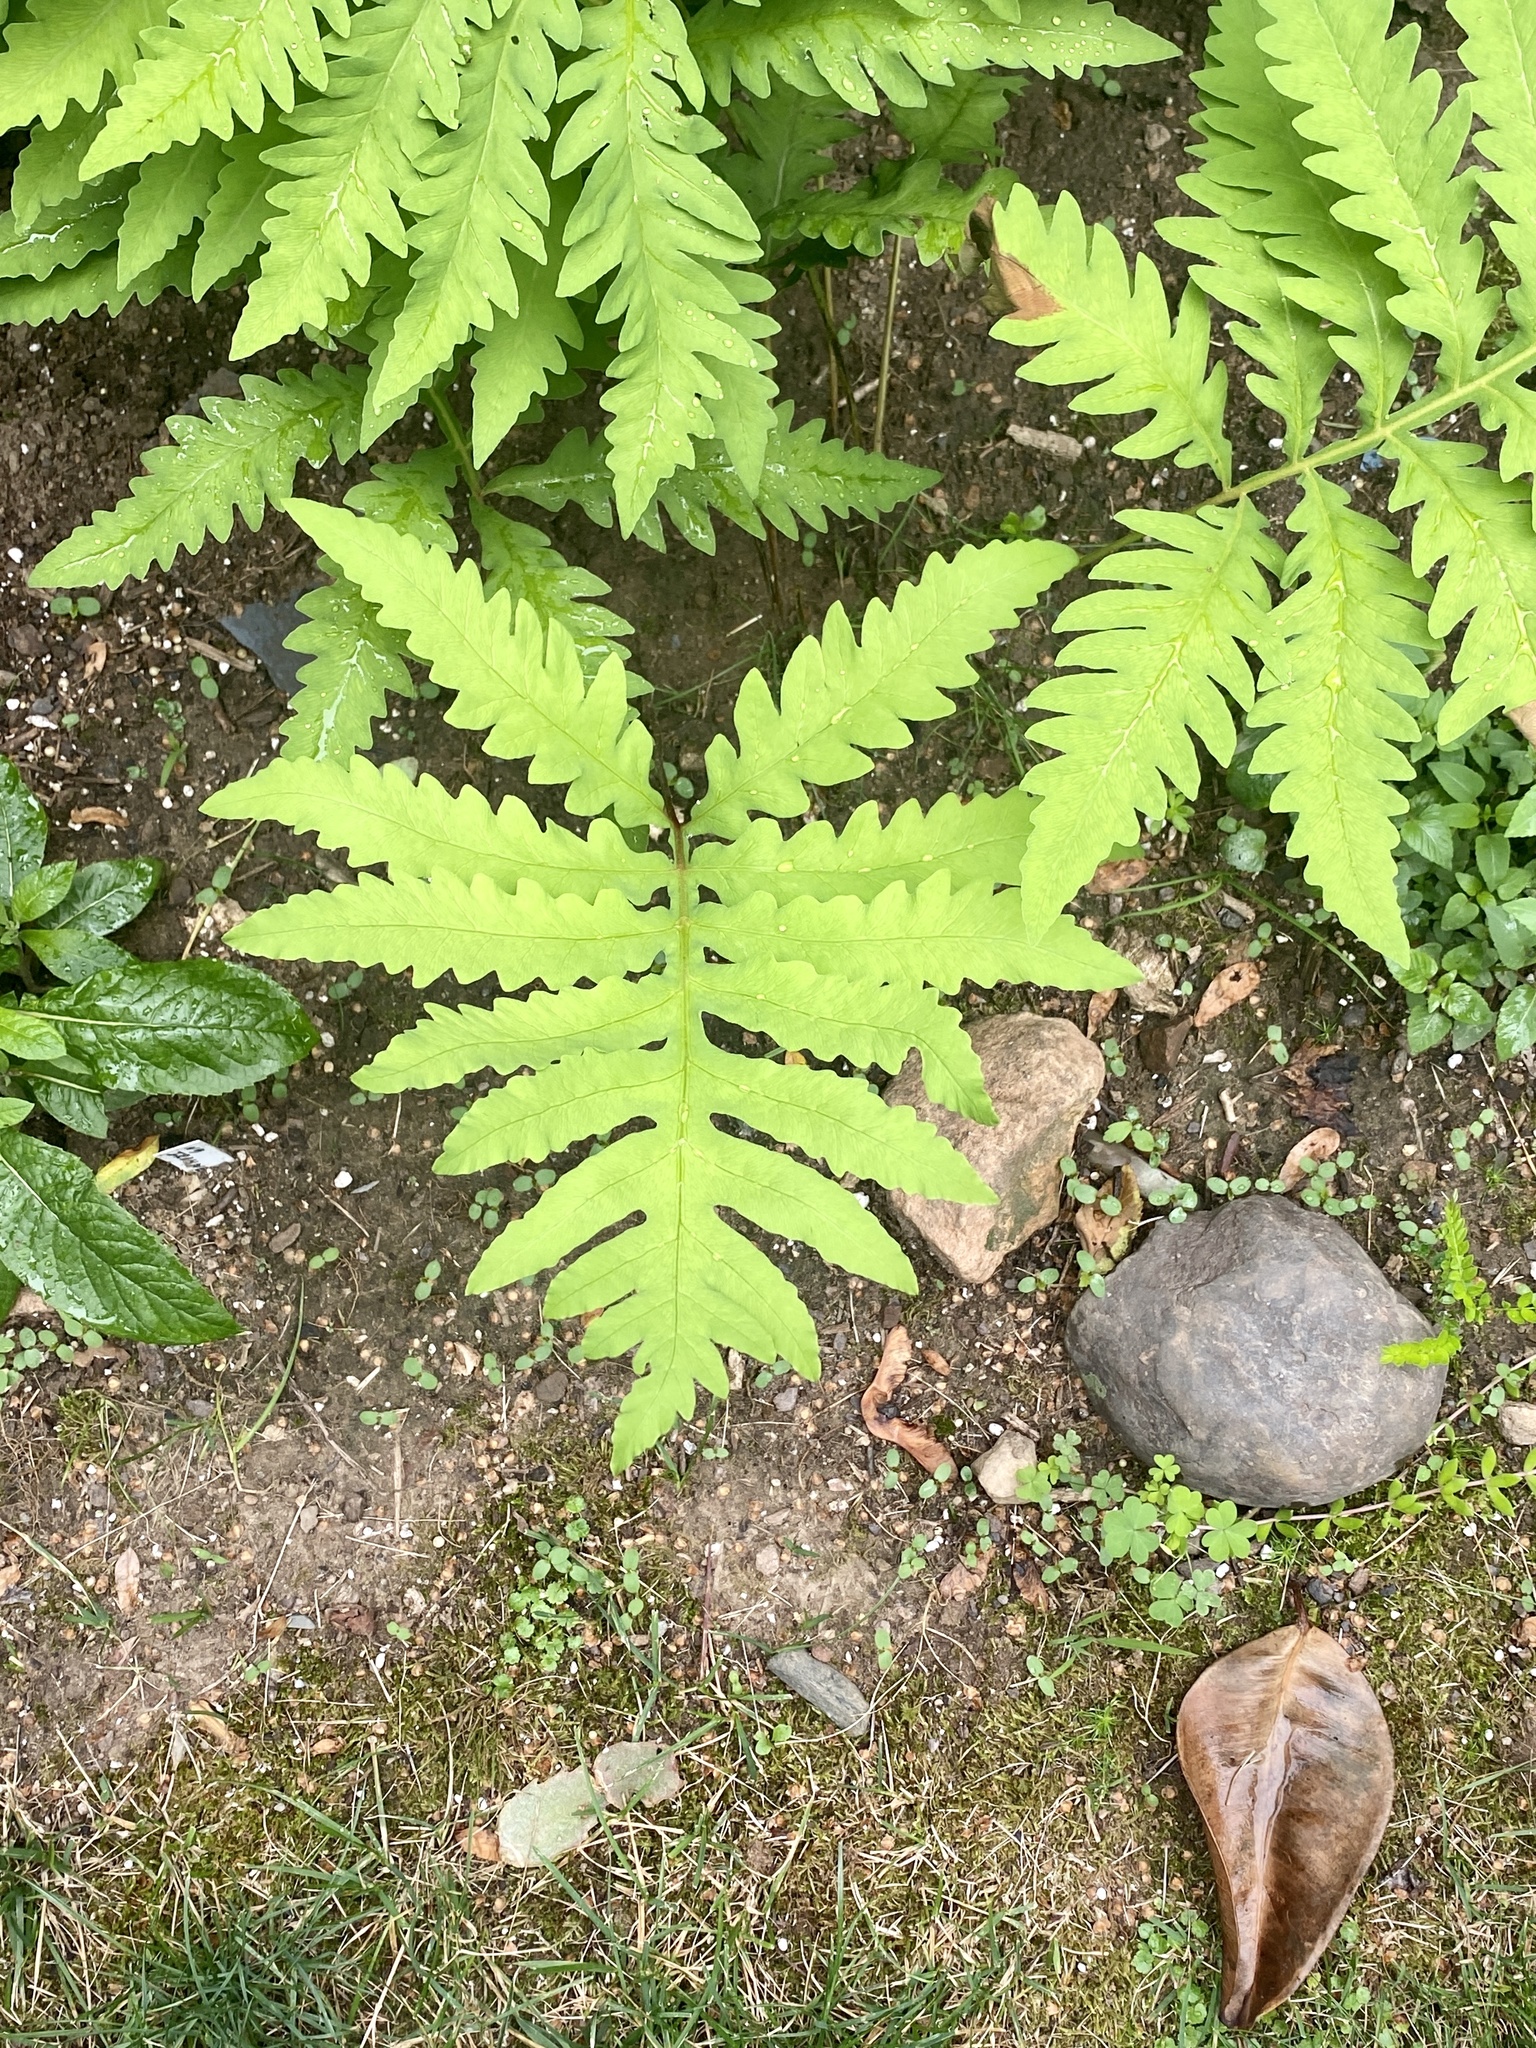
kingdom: Plantae
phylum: Tracheophyta
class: Polypodiopsida
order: Polypodiales
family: Onocleaceae
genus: Onoclea
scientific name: Onoclea sensibilis
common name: Sensitive fern
